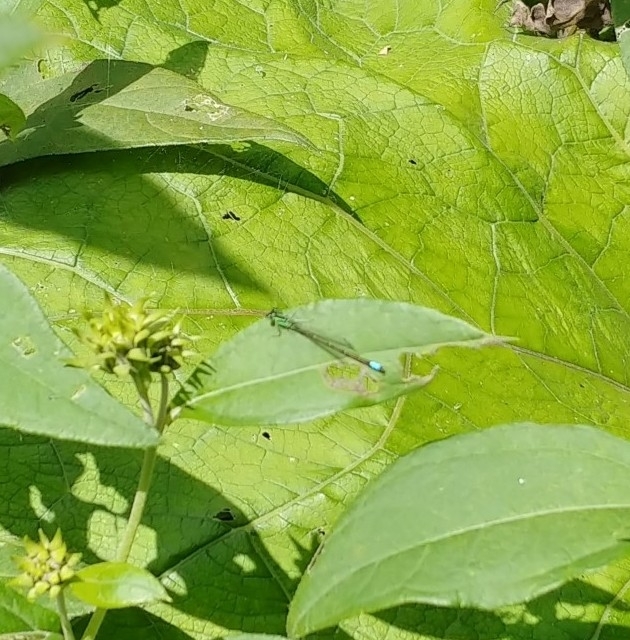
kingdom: Animalia
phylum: Arthropoda
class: Insecta
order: Odonata
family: Coenagrionidae
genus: Ischnura
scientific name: Ischnura verticalis
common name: Eastern forktail
